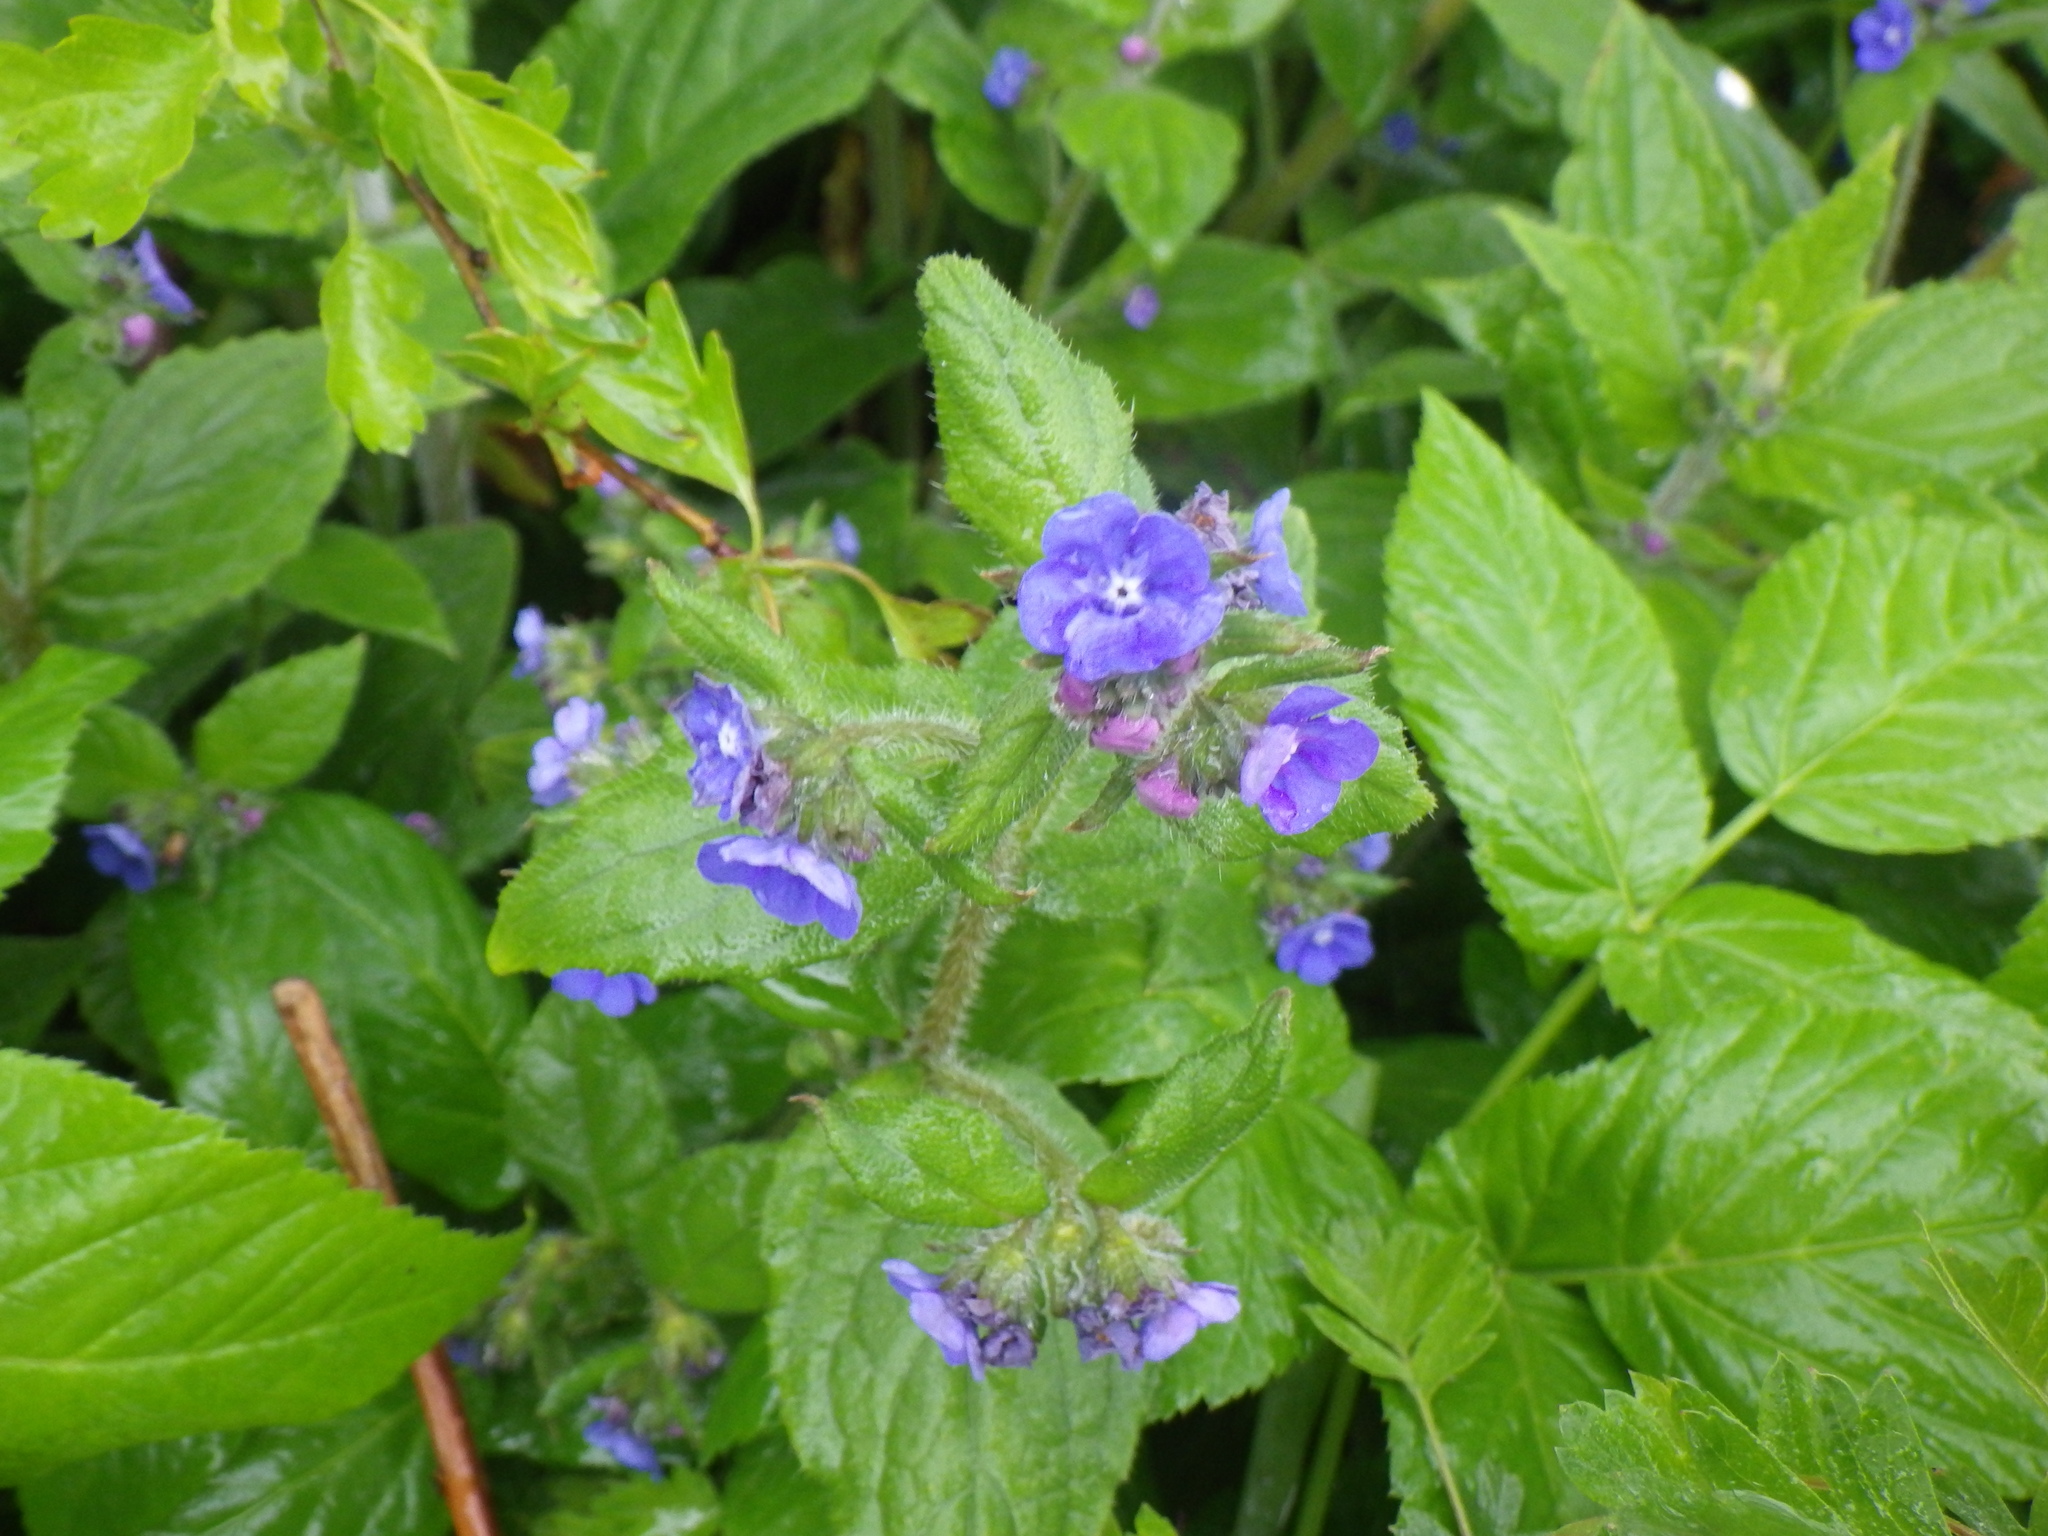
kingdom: Plantae
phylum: Tracheophyta
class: Magnoliopsida
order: Boraginales
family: Boraginaceae
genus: Pentaglottis
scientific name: Pentaglottis sempervirens
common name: Green alkanet
